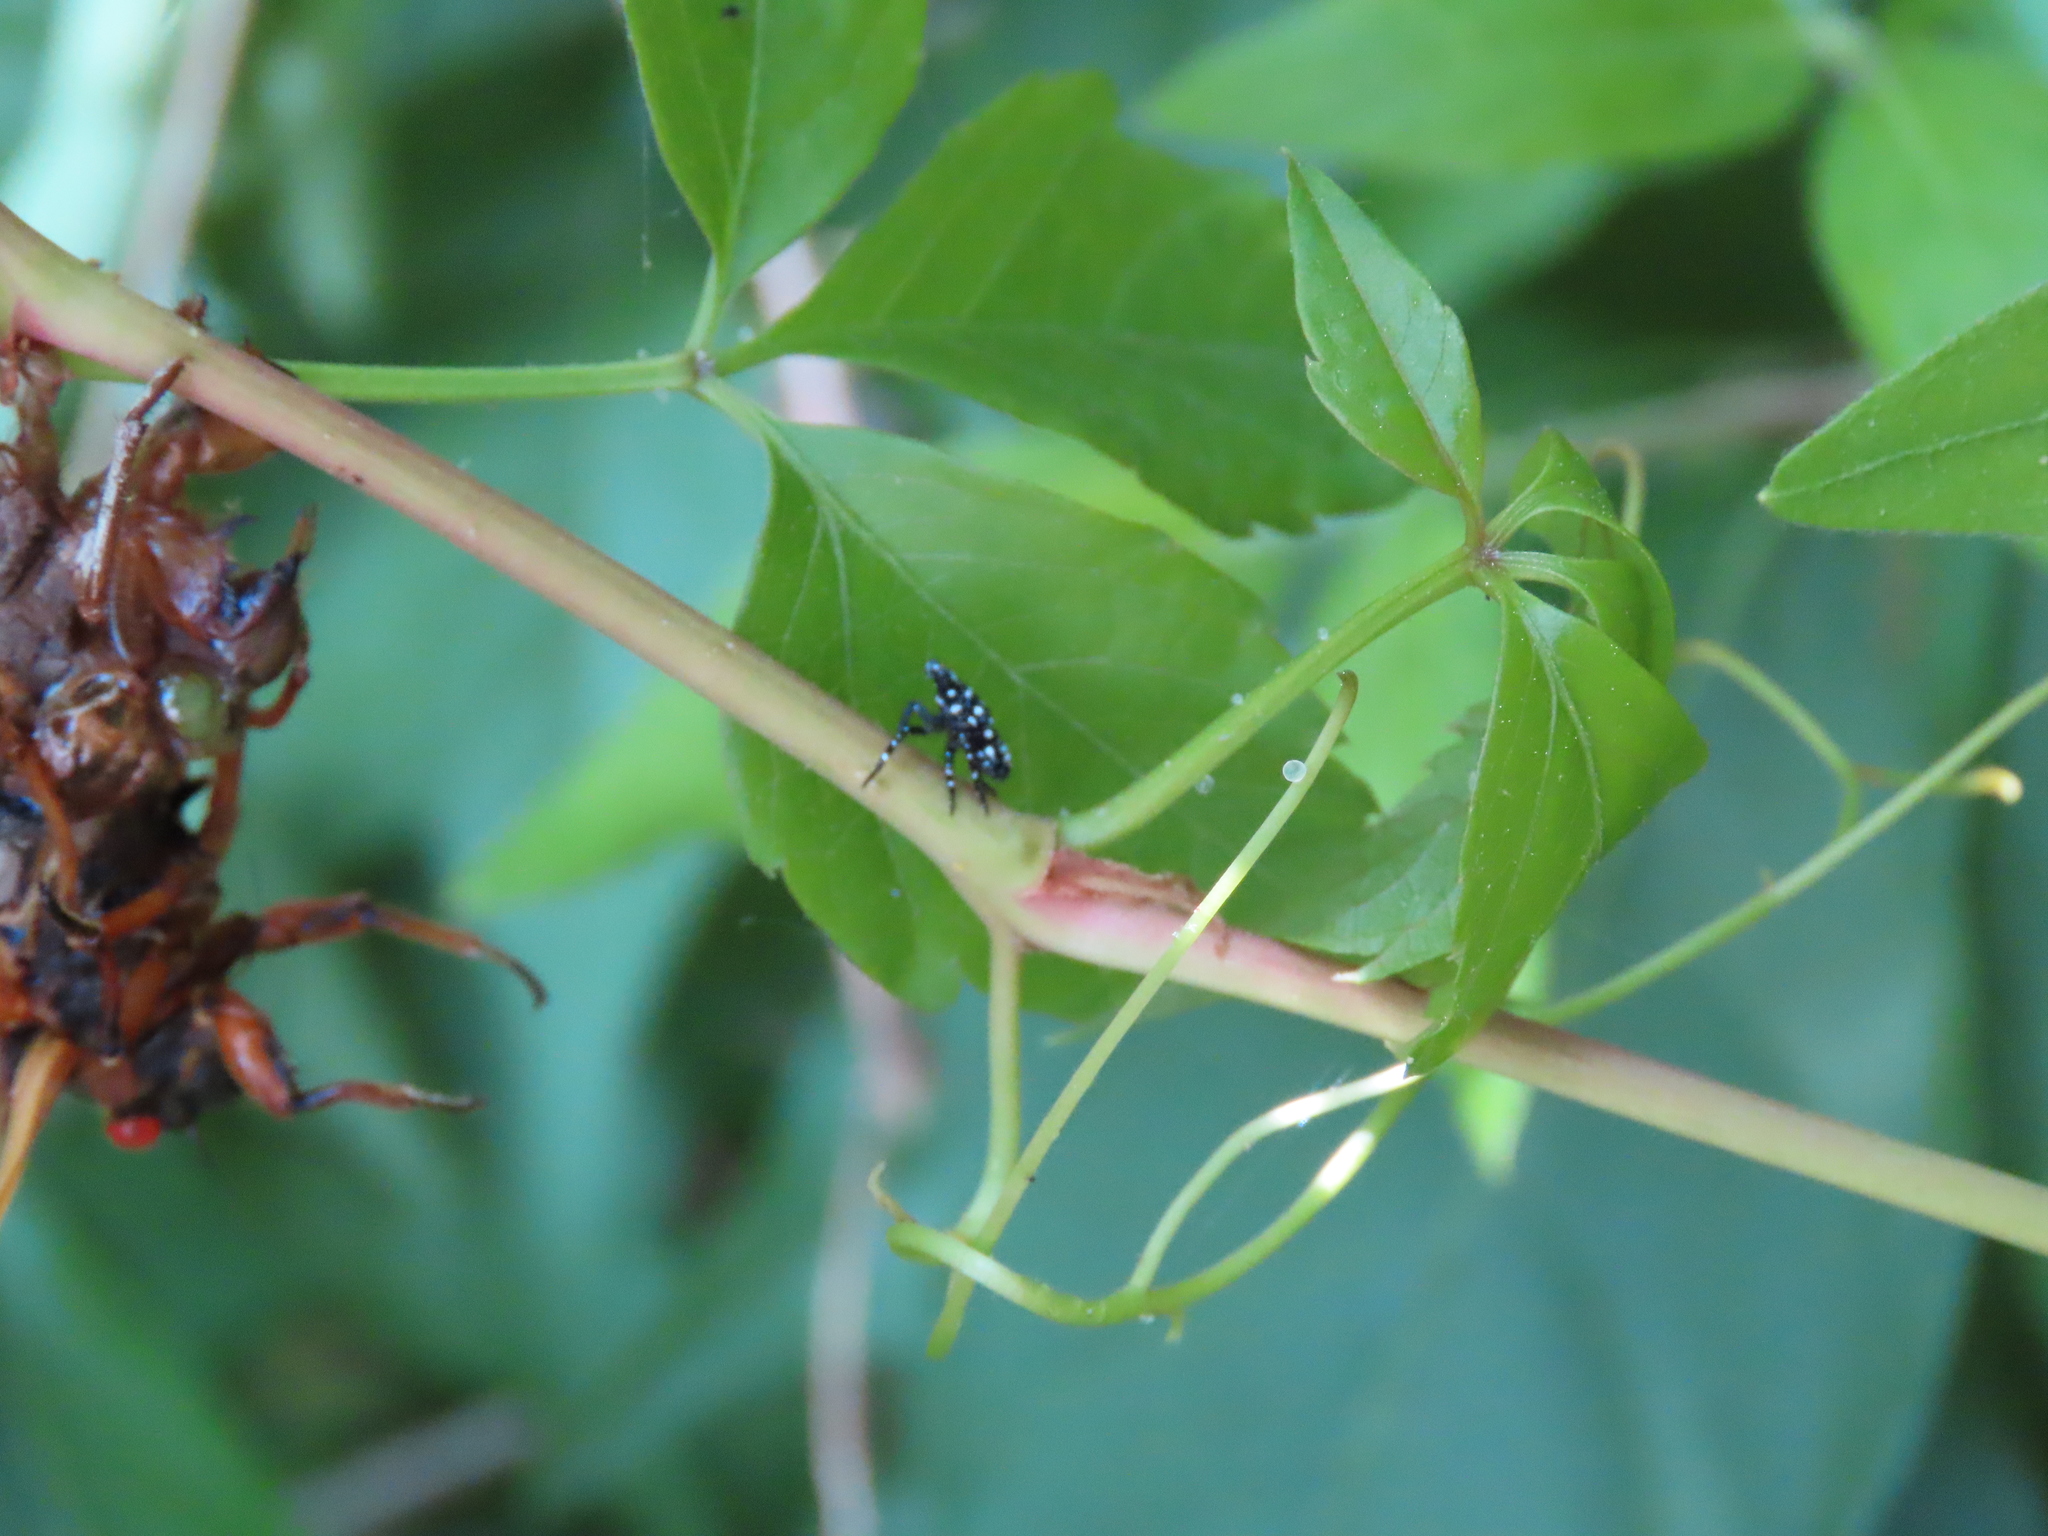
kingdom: Animalia
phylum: Arthropoda
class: Insecta
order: Hemiptera
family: Fulgoridae
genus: Lycorma
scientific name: Lycorma delicatula
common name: Spotted lanternfly
